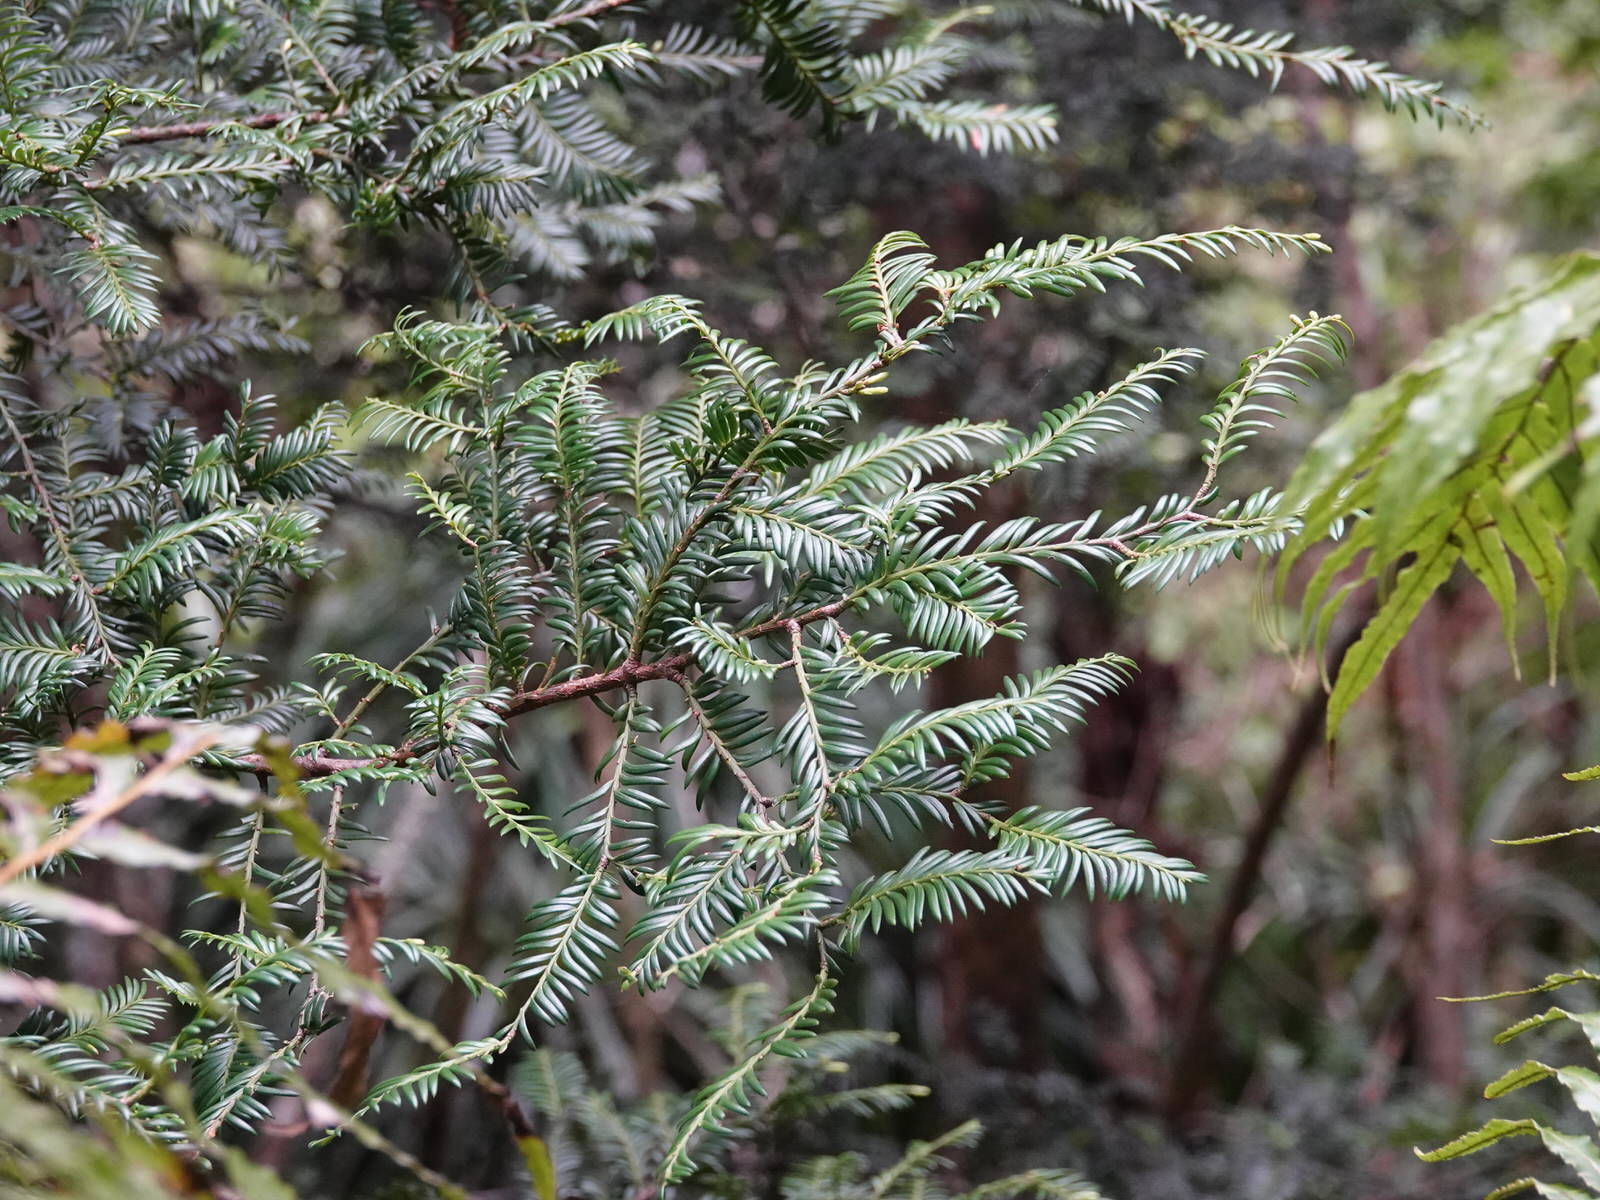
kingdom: Plantae
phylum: Tracheophyta
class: Pinopsida
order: Pinales
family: Podocarpaceae
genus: Prumnopitys
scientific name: Prumnopitys ferruginea
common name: Brown pine
